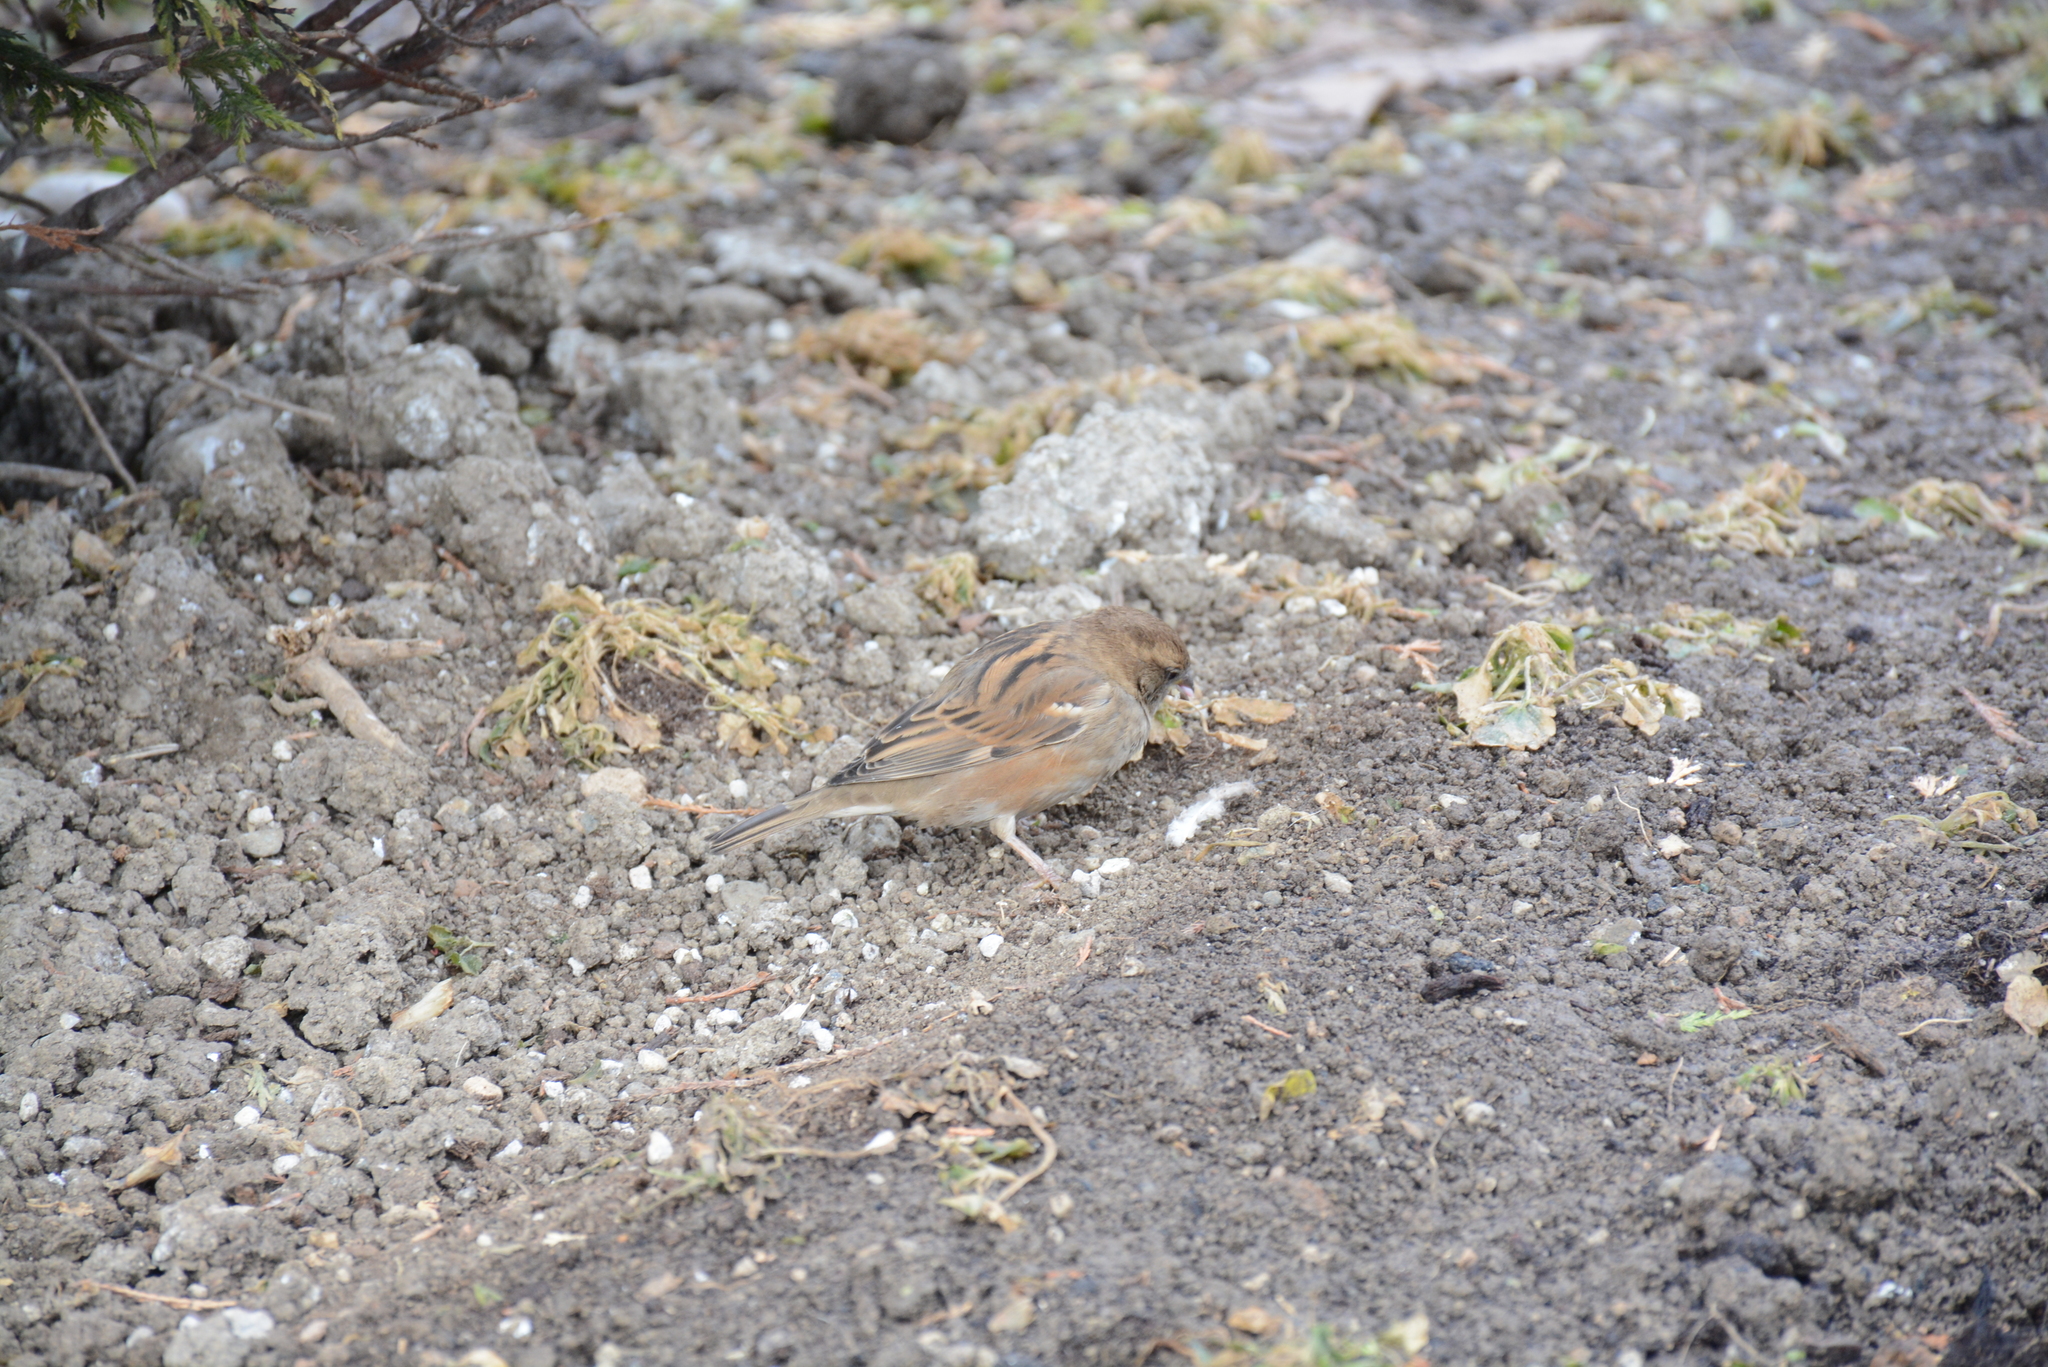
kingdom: Animalia
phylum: Chordata
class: Aves
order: Passeriformes
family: Passeridae
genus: Passer
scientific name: Passer domesticus
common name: House sparrow
